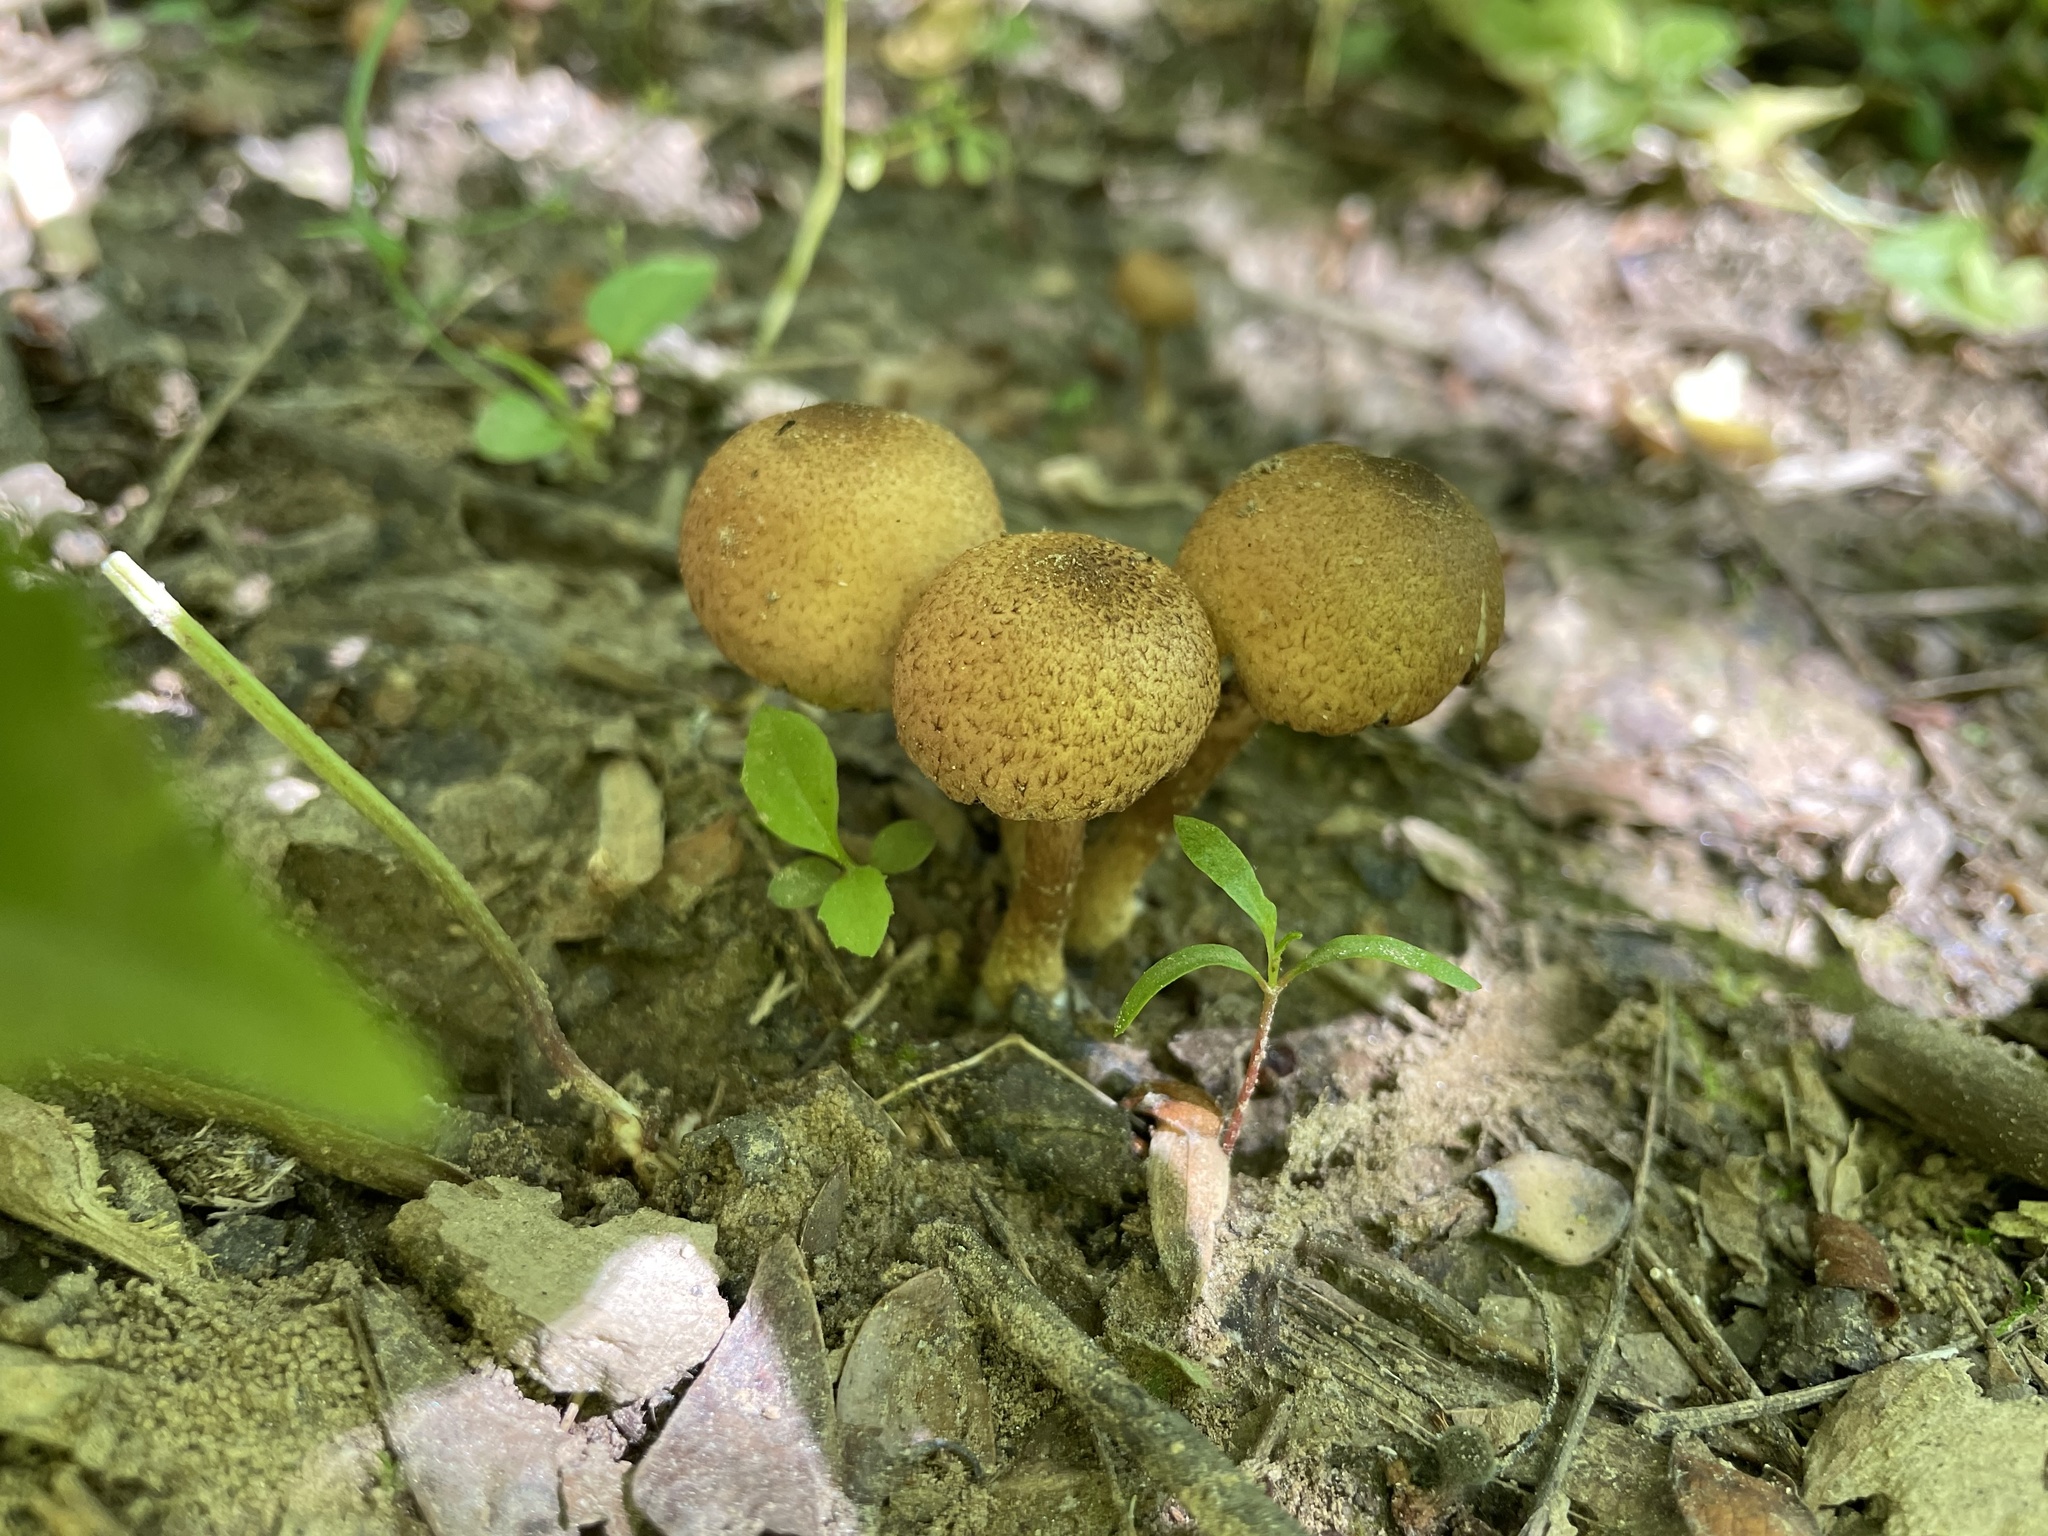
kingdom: Fungi
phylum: Basidiomycota
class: Agaricomycetes
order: Agaricales
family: Psathyrellaceae
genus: Lacrymaria
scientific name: Lacrymaria lacrymabunda
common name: Weeping widow
